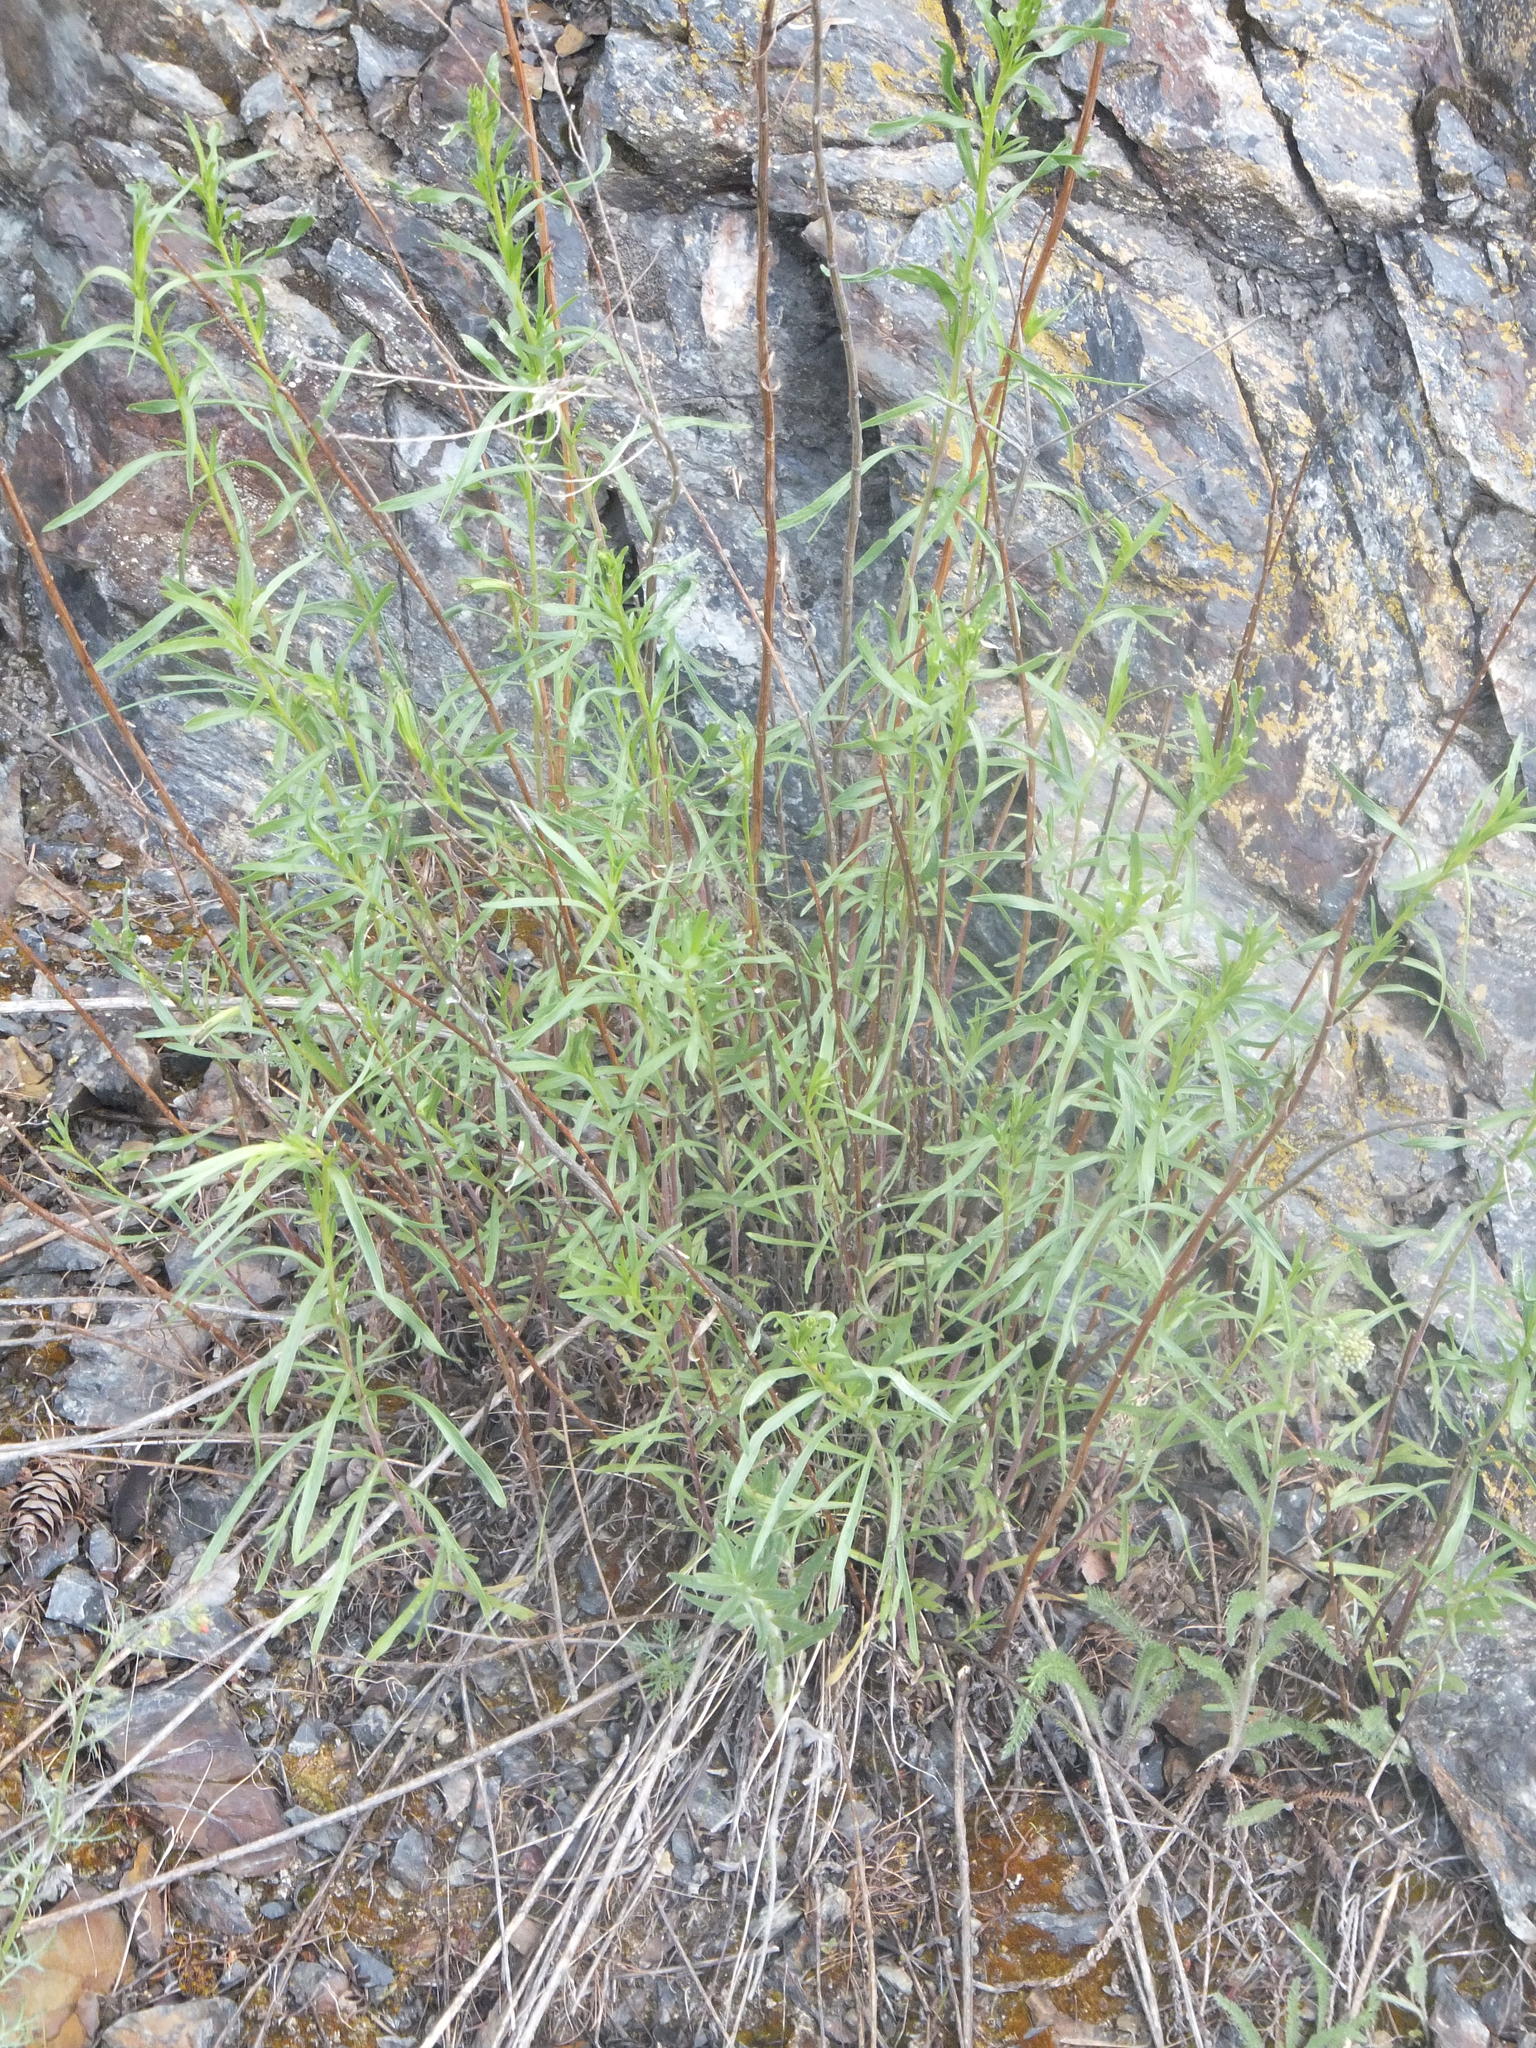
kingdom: Plantae
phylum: Tracheophyta
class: Magnoliopsida
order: Asterales
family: Asteraceae
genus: Artemisia
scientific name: Artemisia dracunculus
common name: Tarragon
